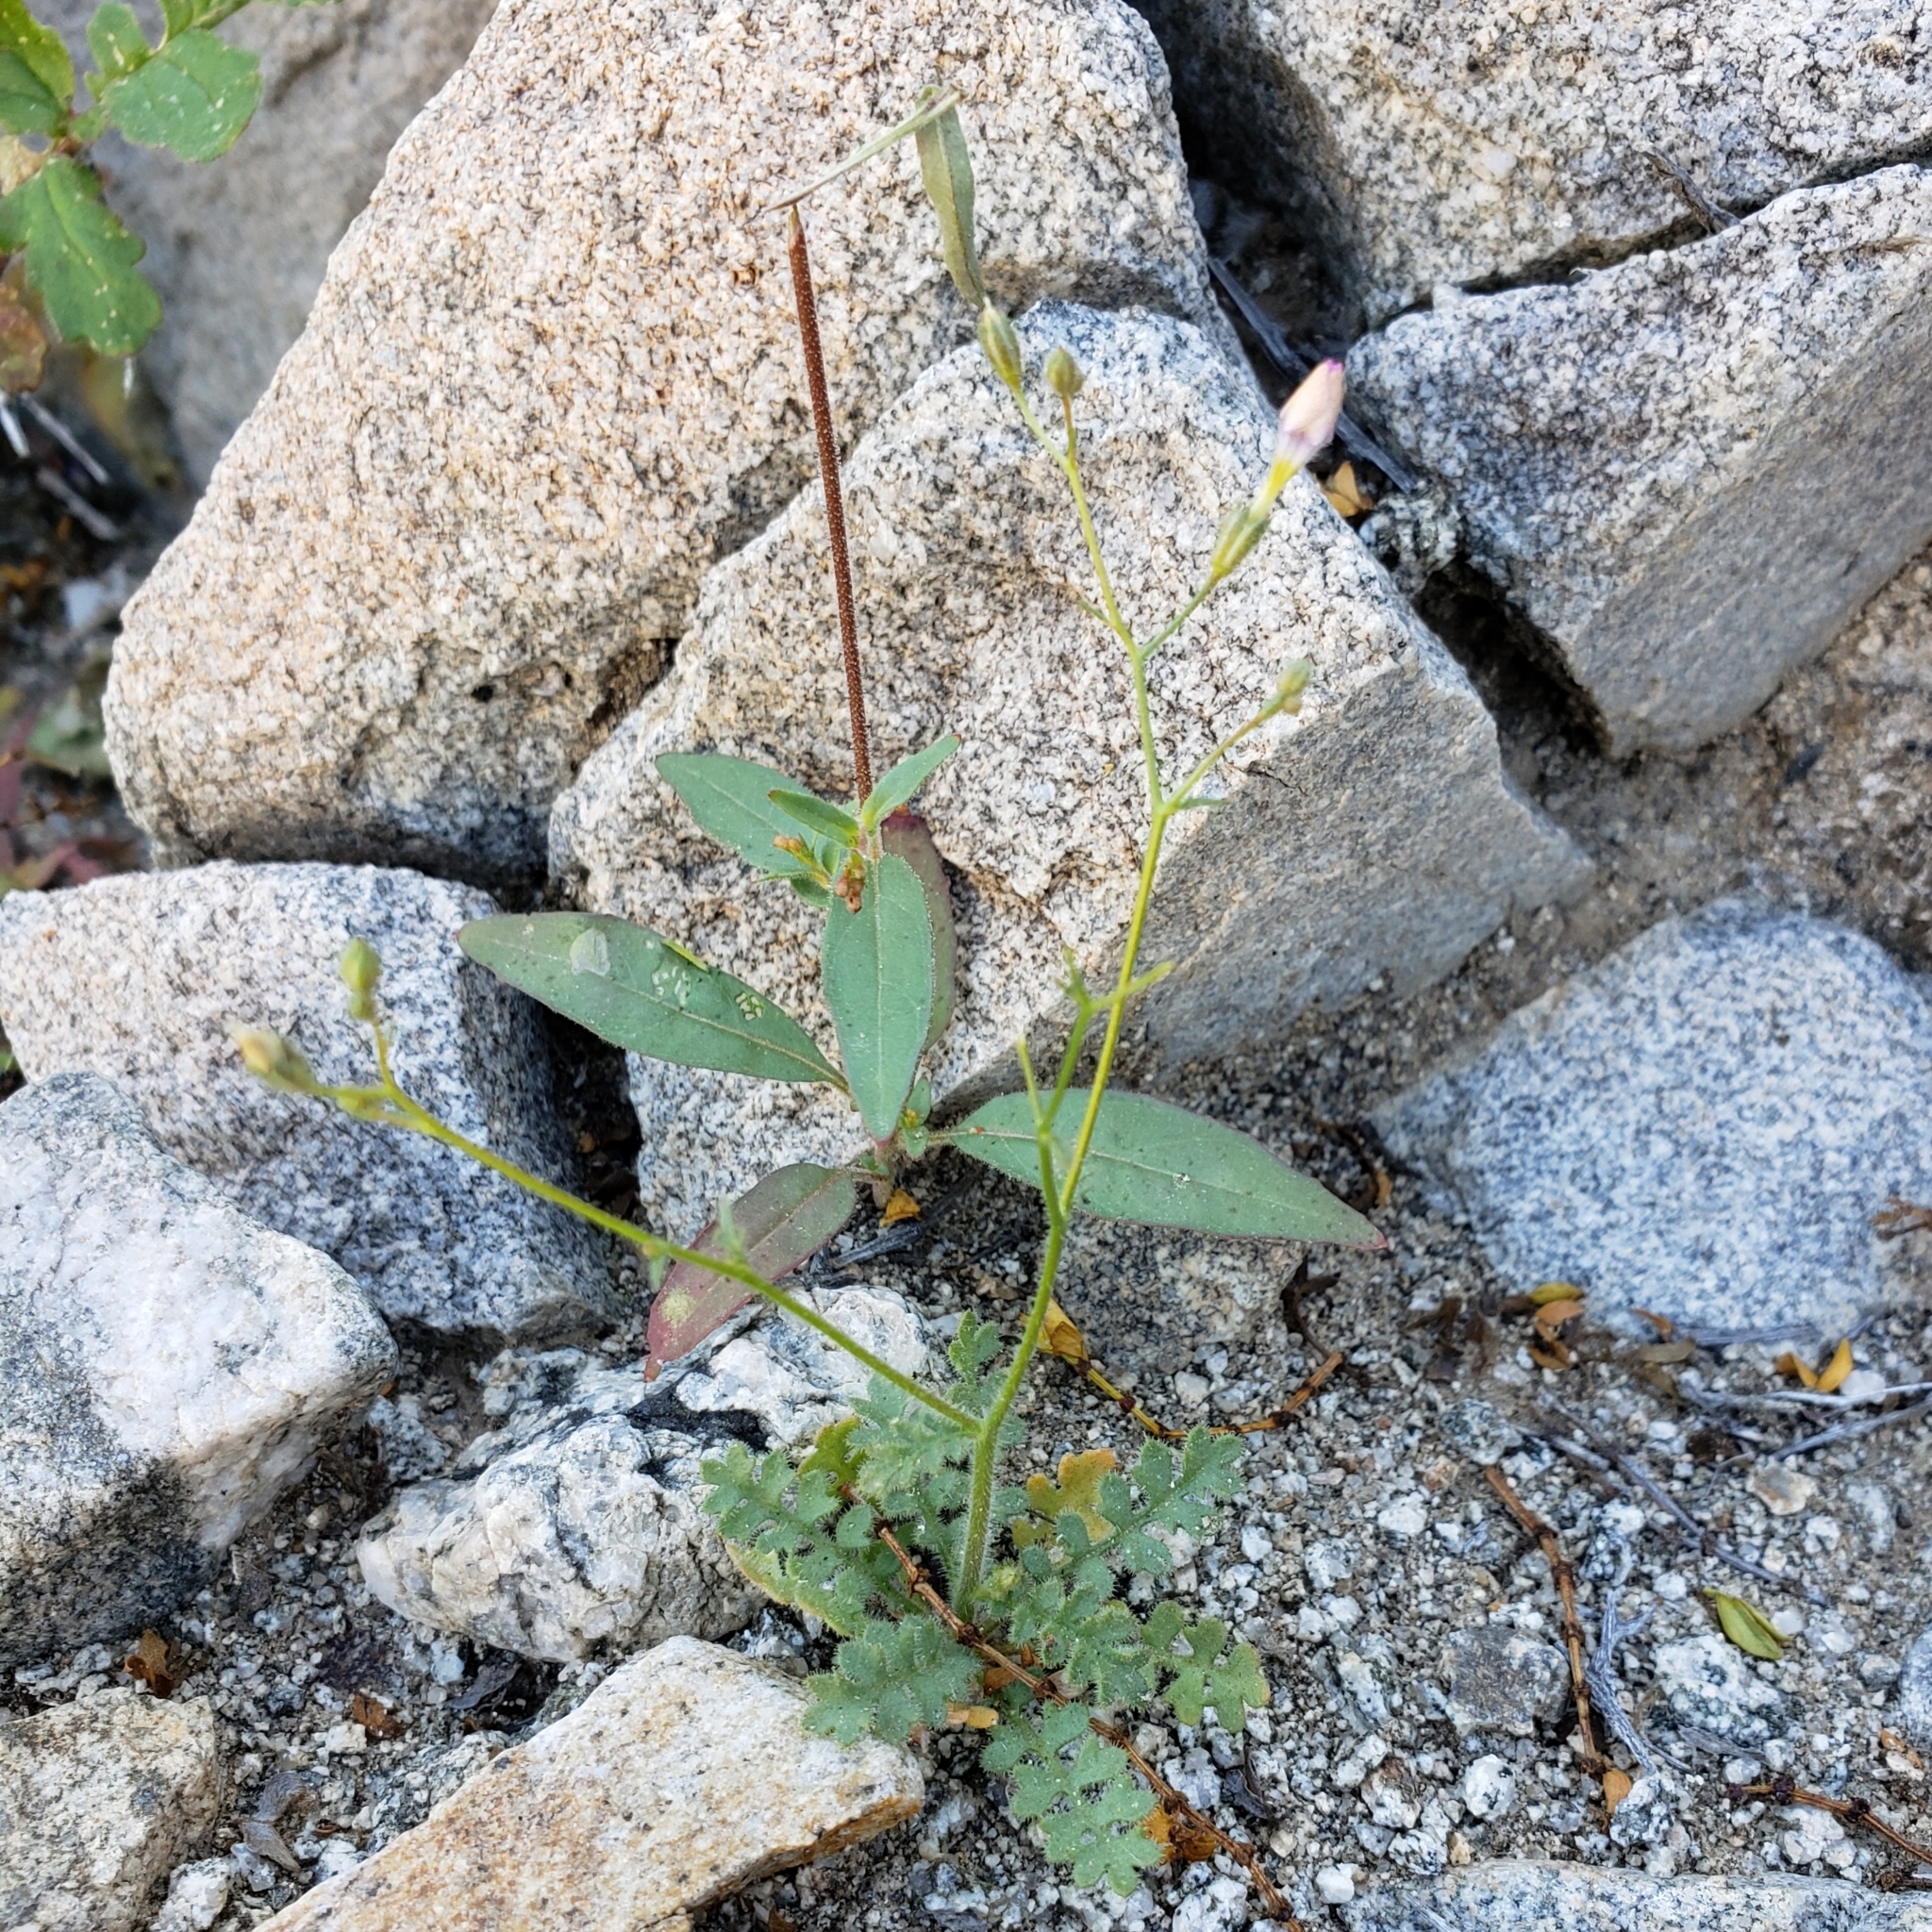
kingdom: Plantae
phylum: Tracheophyta
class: Magnoliopsida
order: Ericales
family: Polemoniaceae
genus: Gilia
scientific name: Gilia scopulorum
